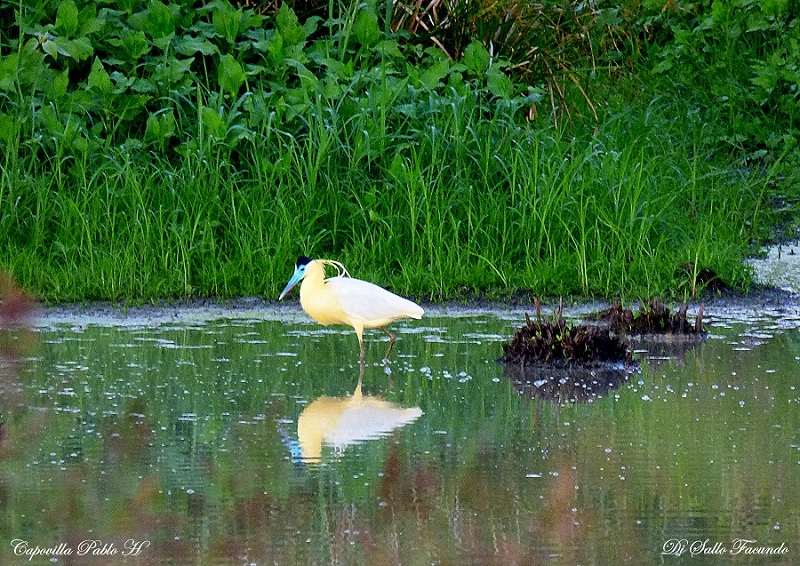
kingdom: Animalia
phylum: Chordata
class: Aves
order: Pelecaniformes
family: Ardeidae
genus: Pilherodius
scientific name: Pilherodius pileatus
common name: Capped heron
